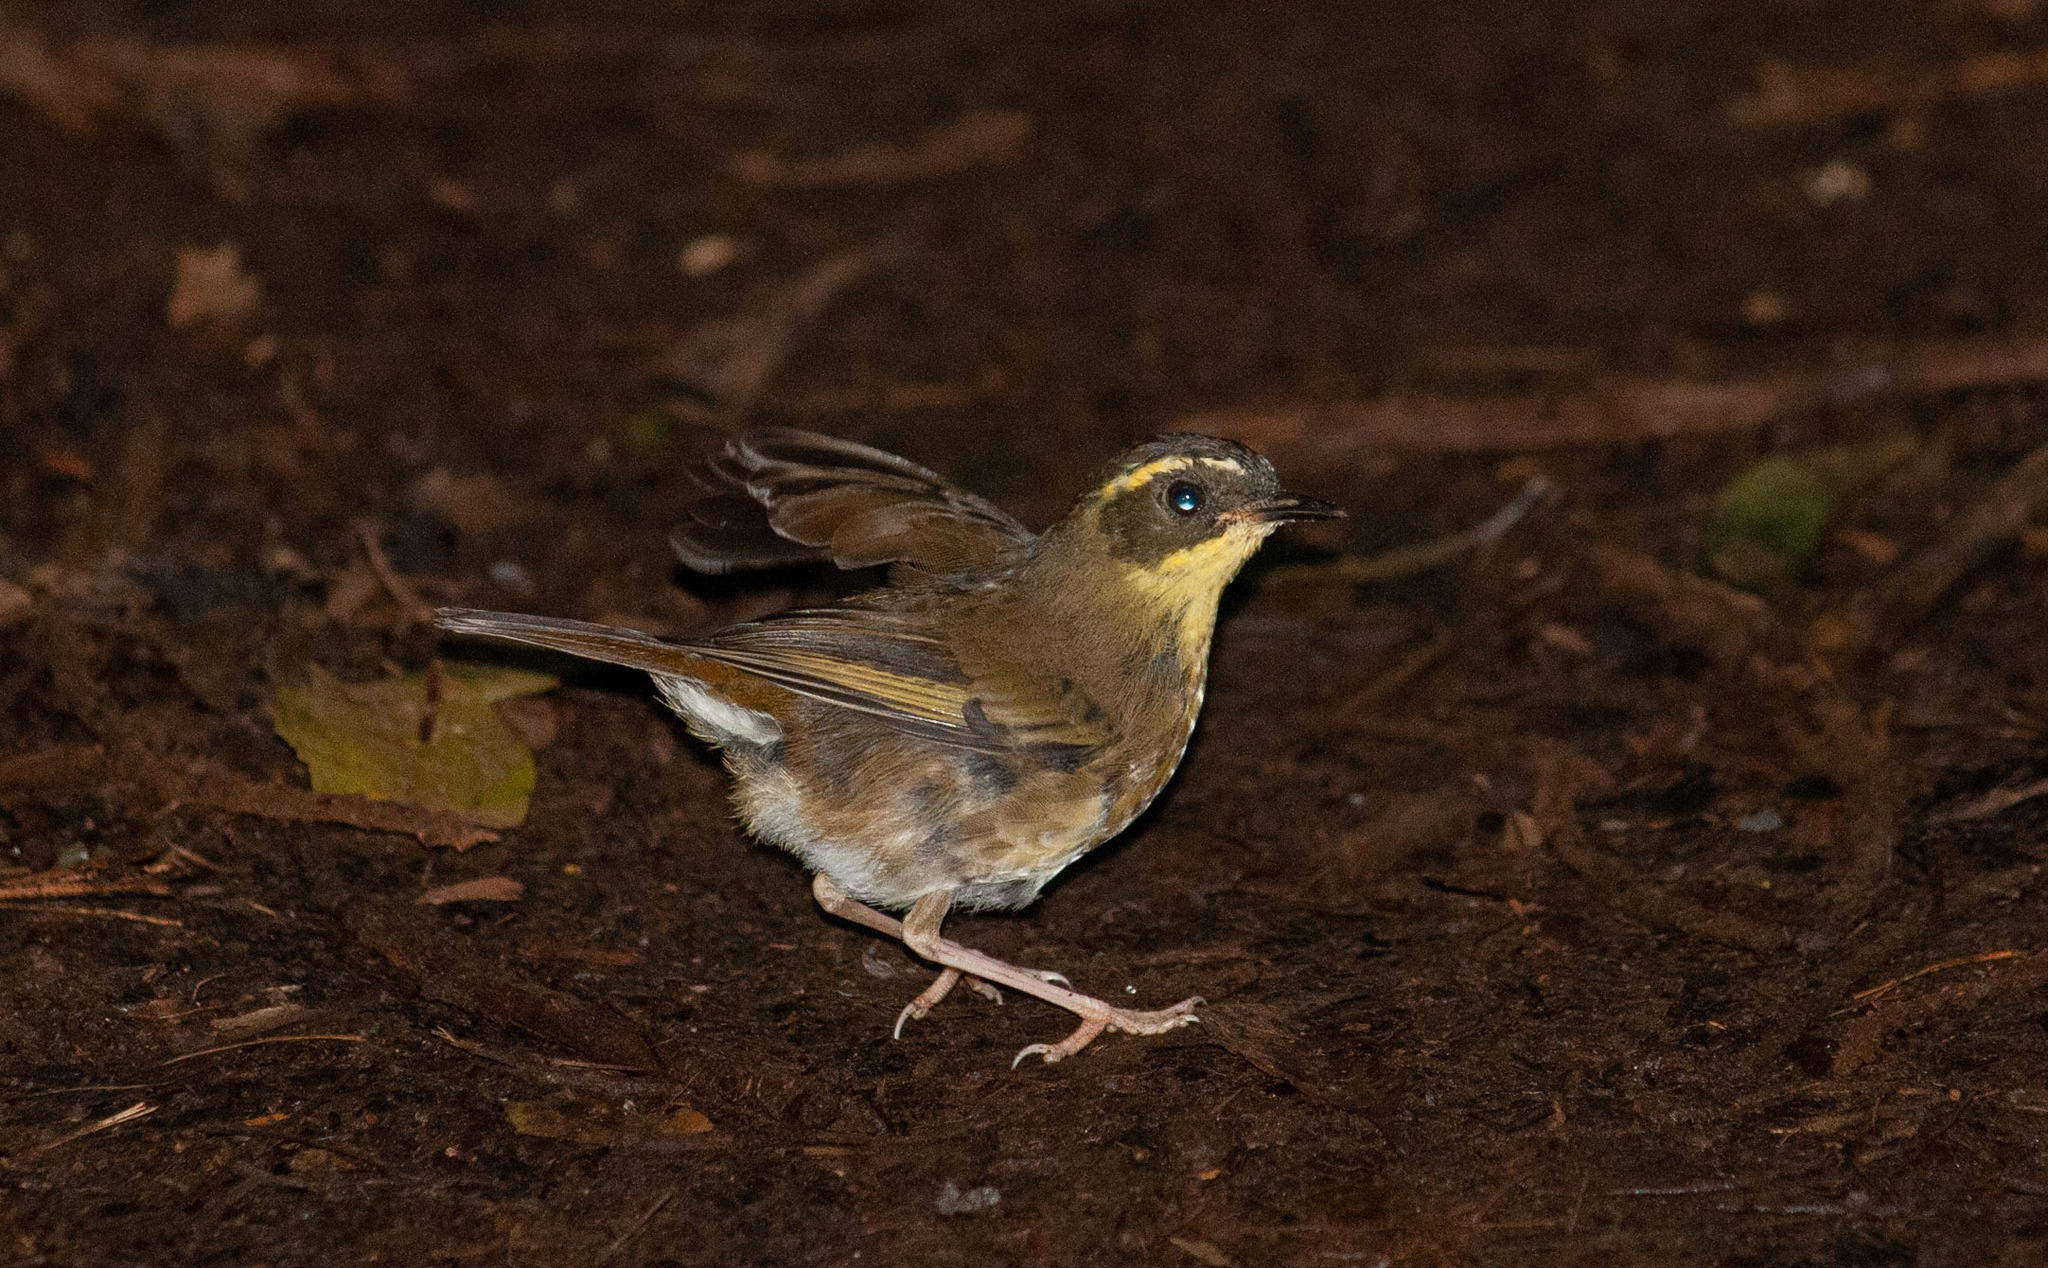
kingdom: Animalia
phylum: Chordata
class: Aves
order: Passeriformes
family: Acanthizidae
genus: Sericornis
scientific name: Sericornis citreogularis
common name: Yellow-throated scrubwren
